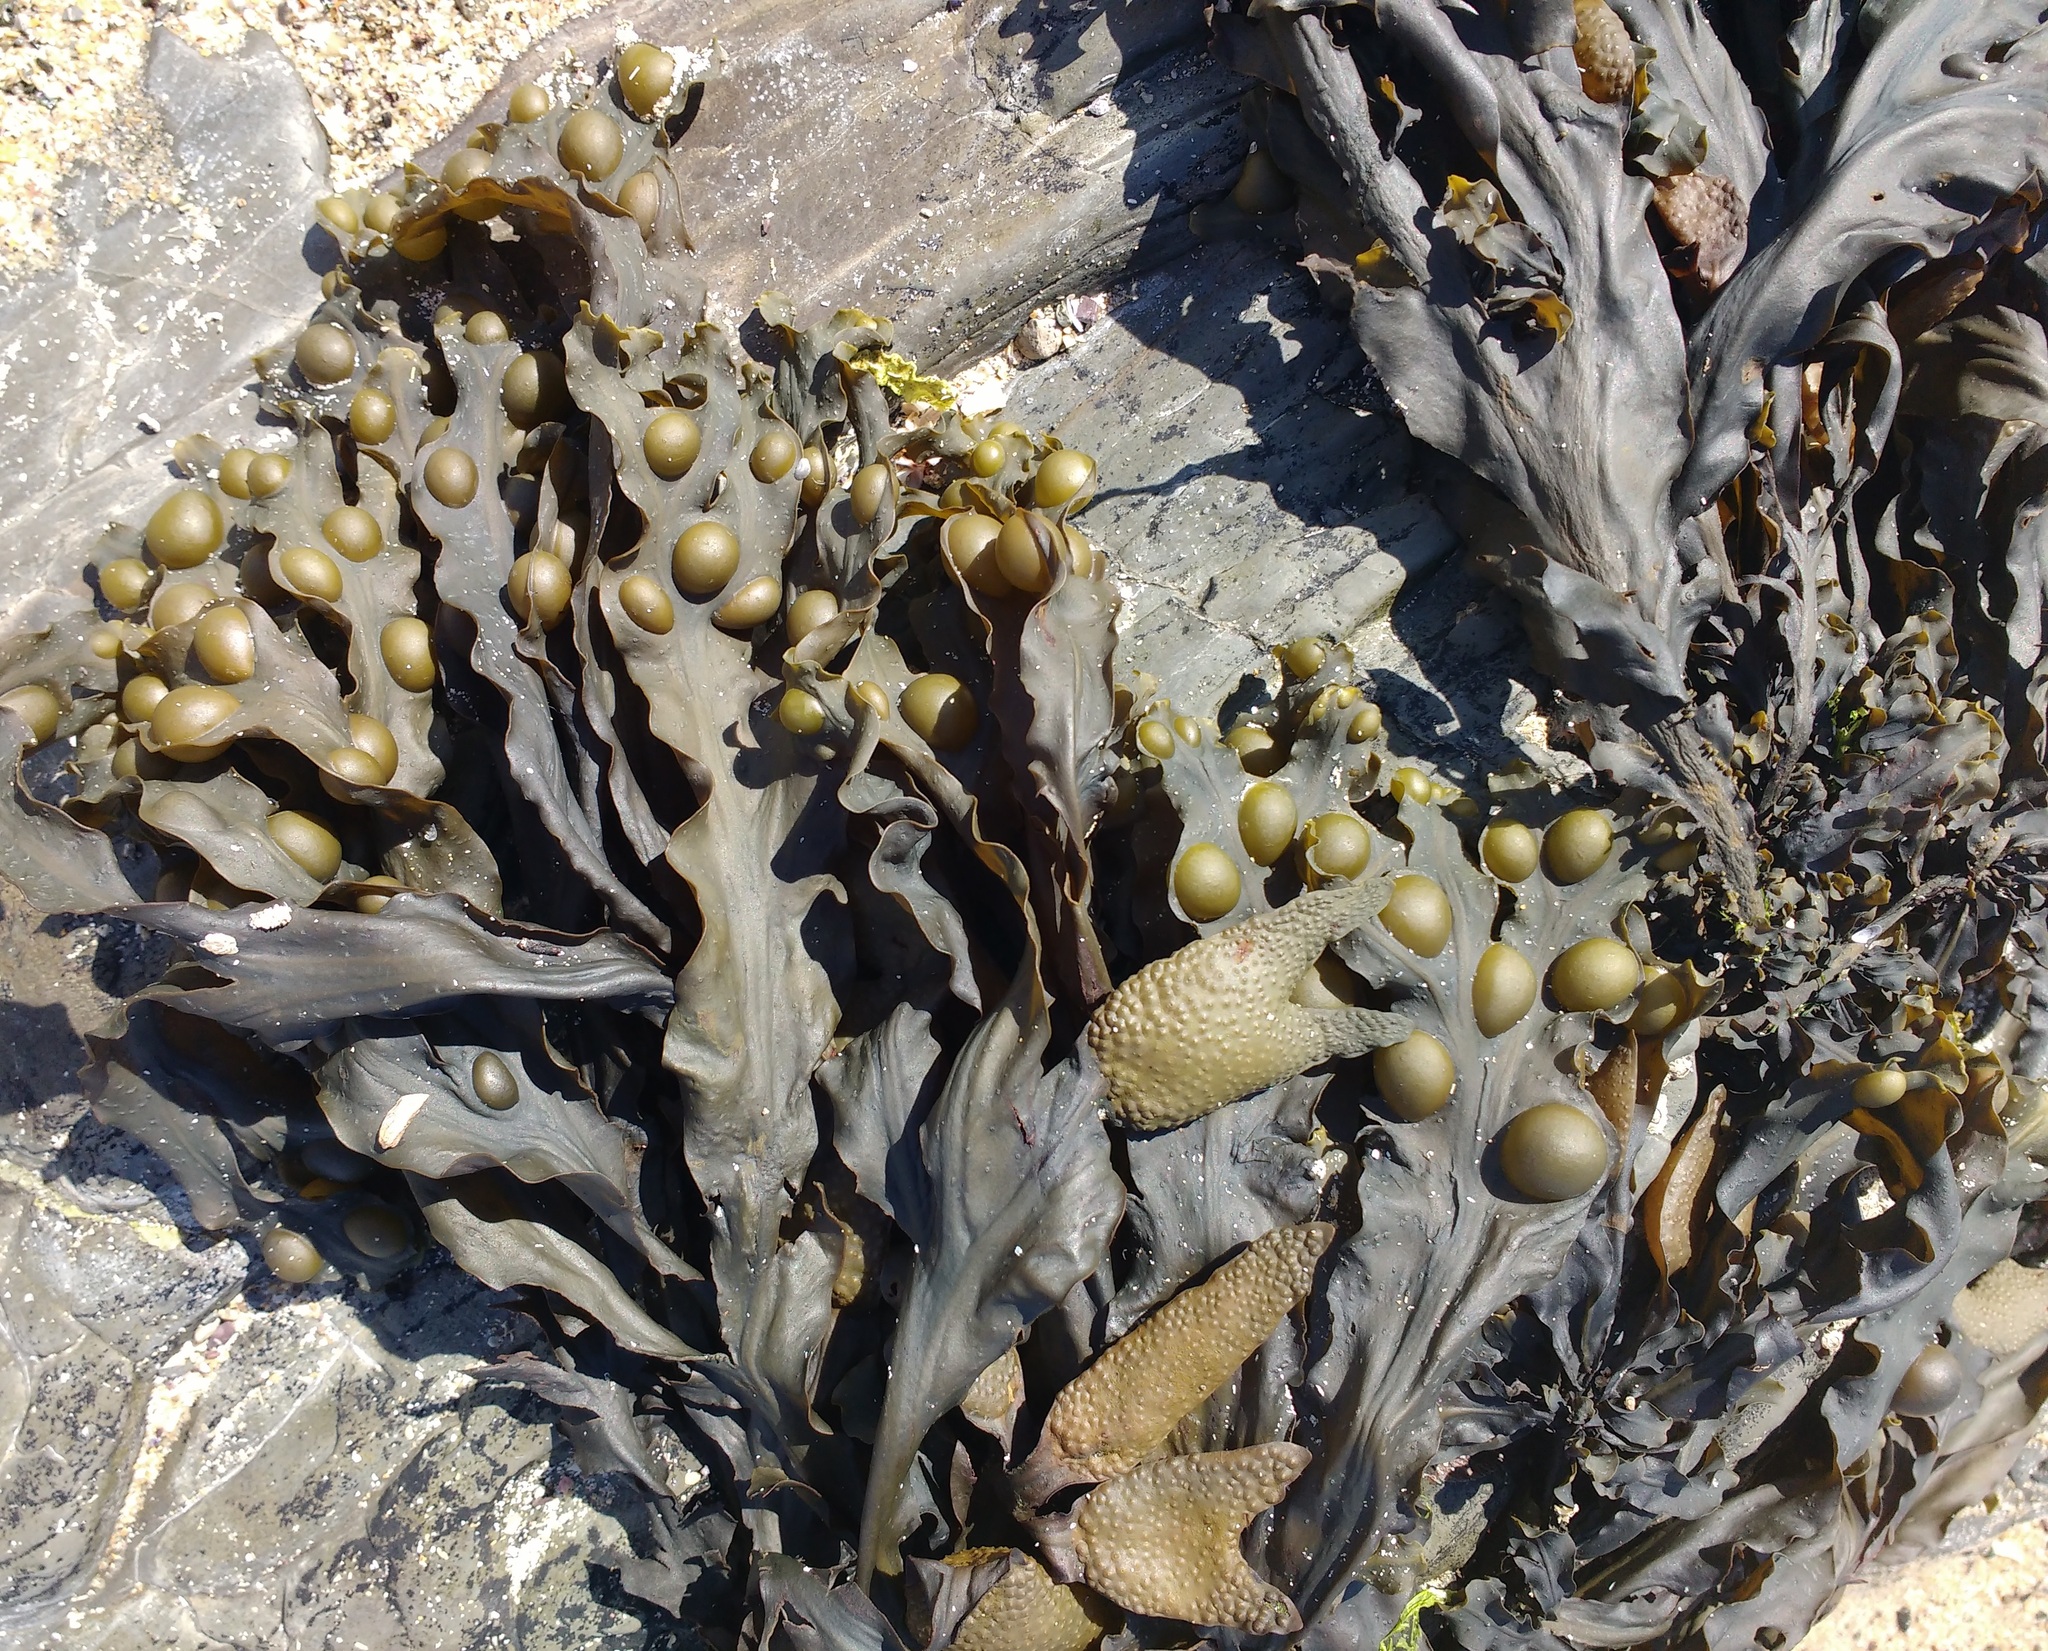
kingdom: Chromista
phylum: Ochrophyta
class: Phaeophyceae
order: Fucales
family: Fucaceae
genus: Fucus
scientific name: Fucus vesiculosus
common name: Bladder wrack
